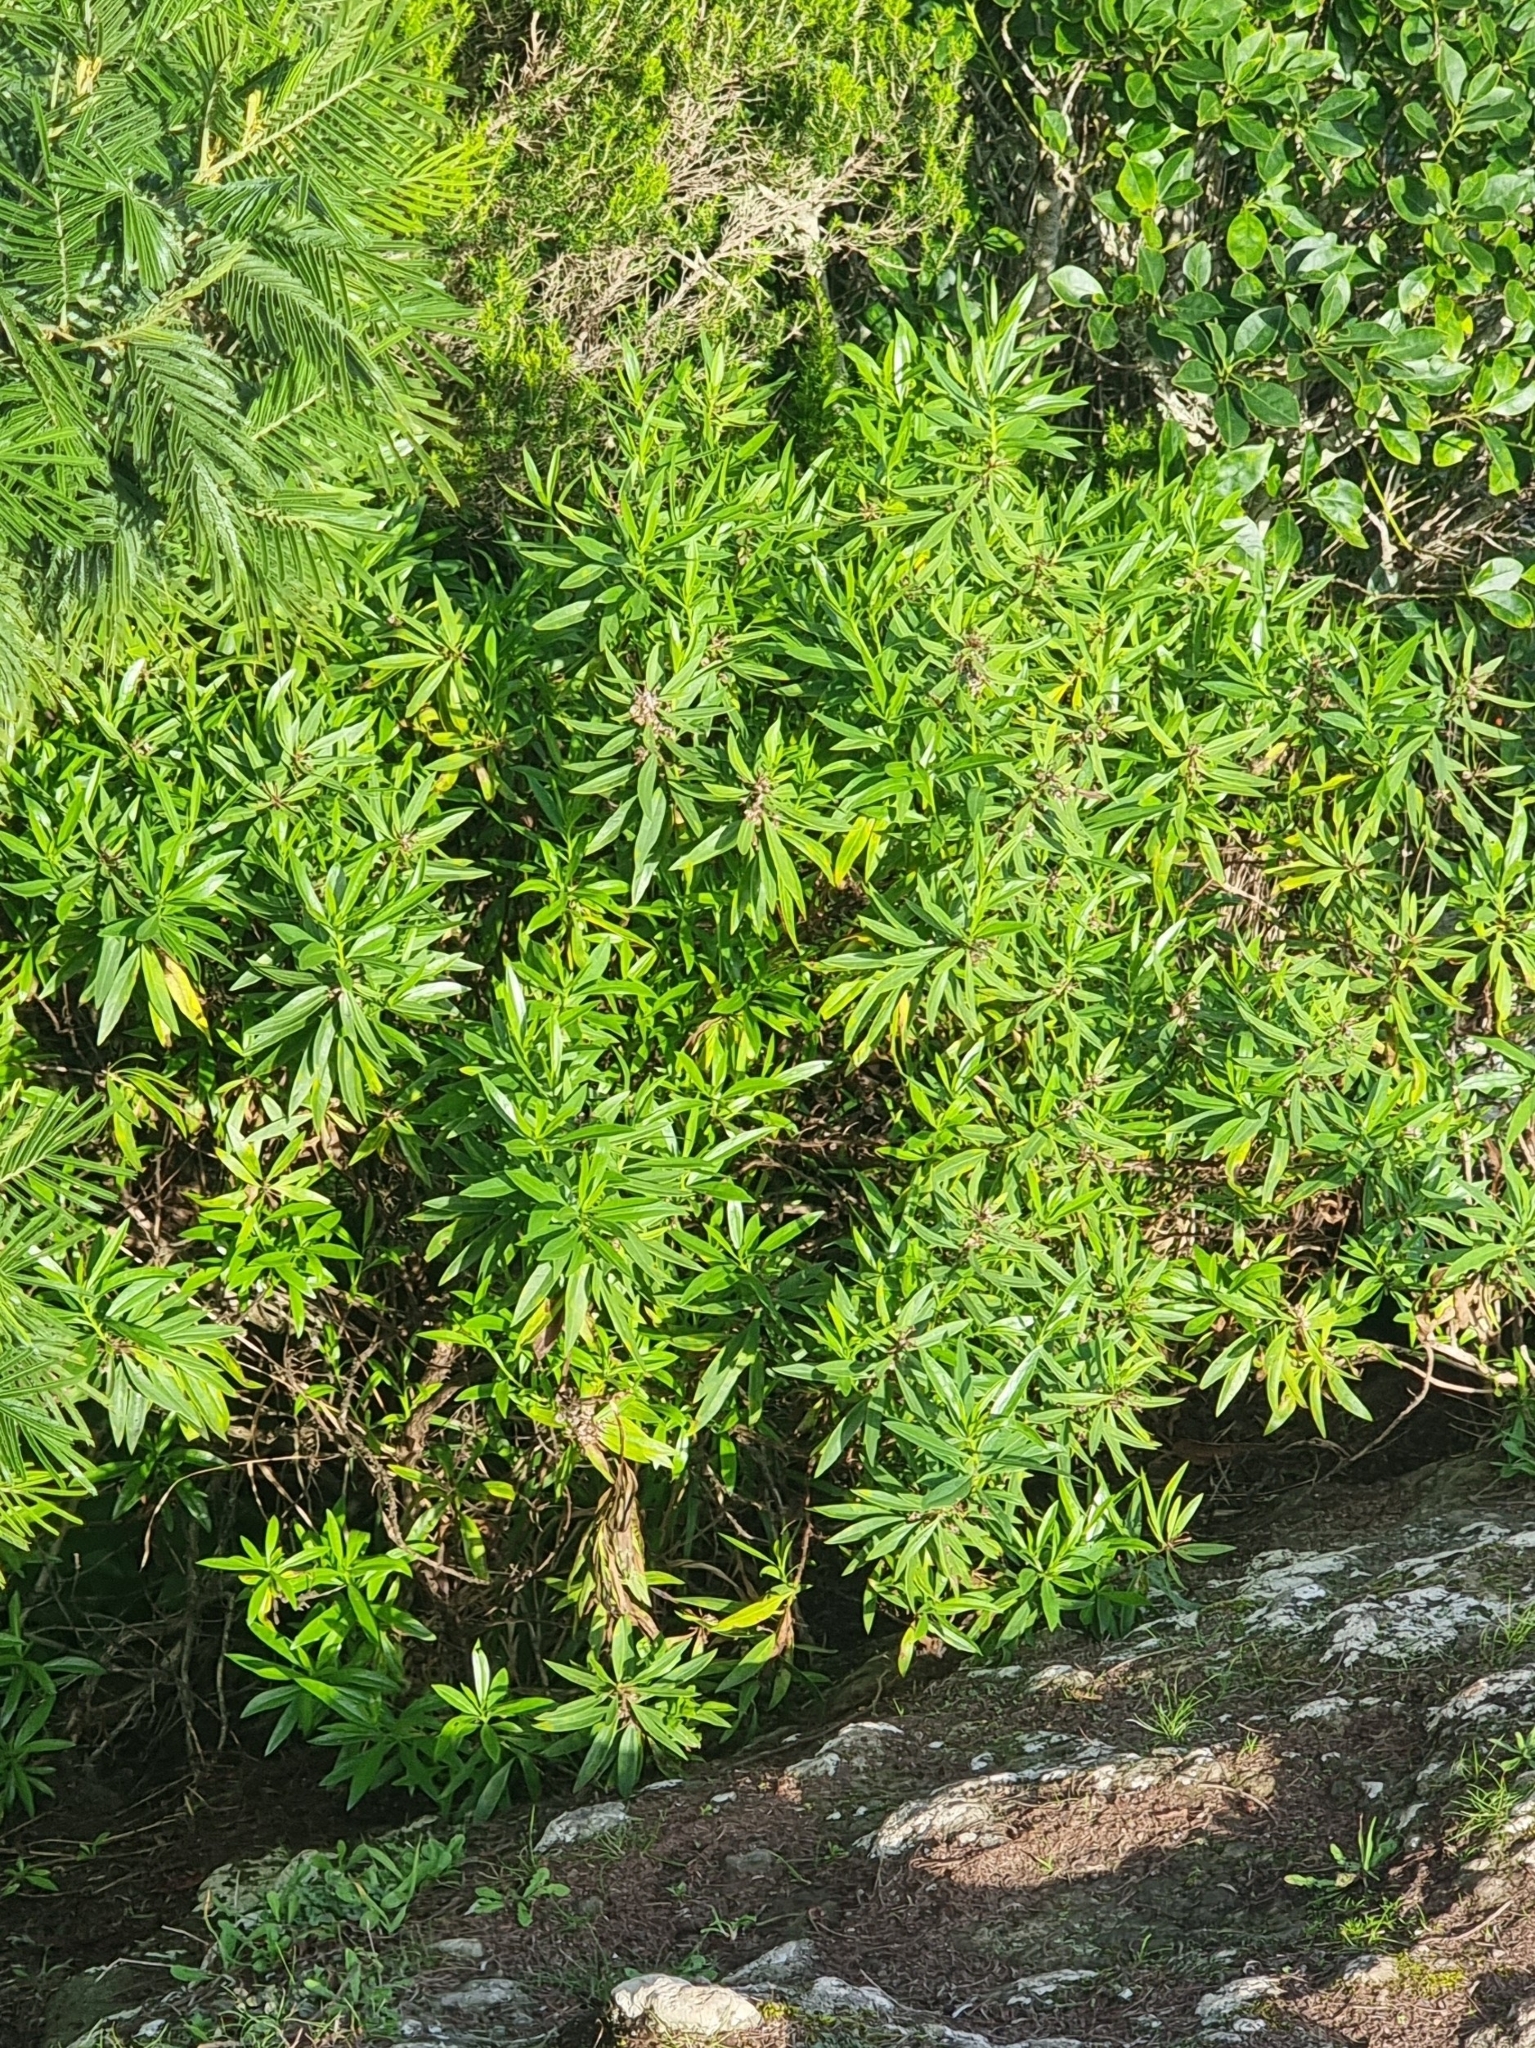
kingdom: Plantae
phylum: Tracheophyta
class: Magnoliopsida
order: Lamiales
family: Plantaginaceae
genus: Globularia
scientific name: Globularia salicina
